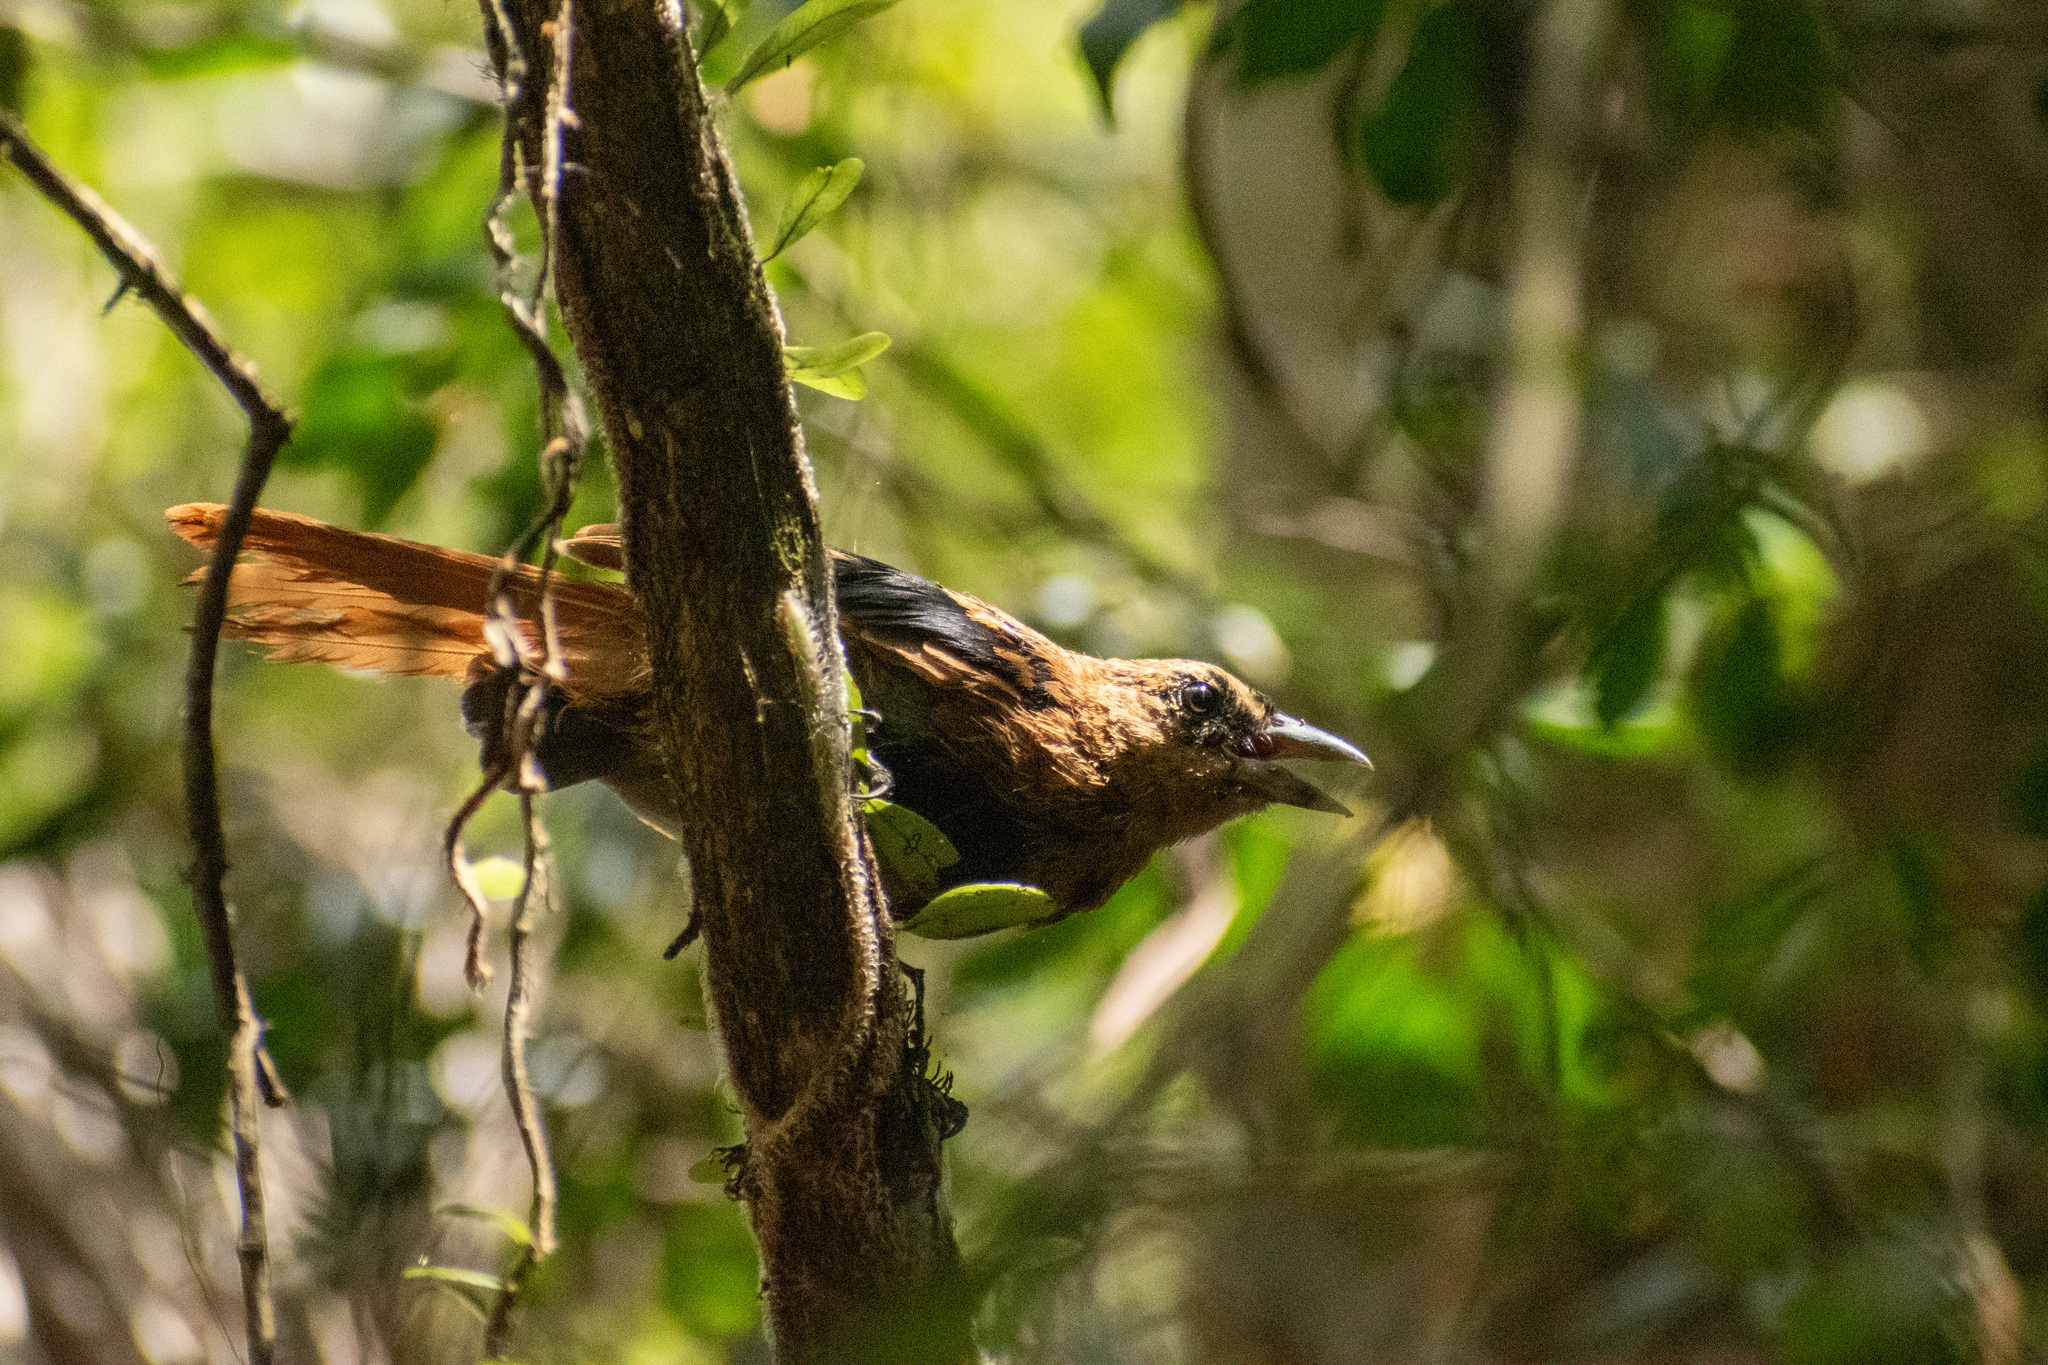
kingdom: Animalia
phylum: Chordata
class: Aves
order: Passeriformes
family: Thraupidae
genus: Tachyphonus
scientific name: Tachyphonus rufus
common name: White-lined tanager
